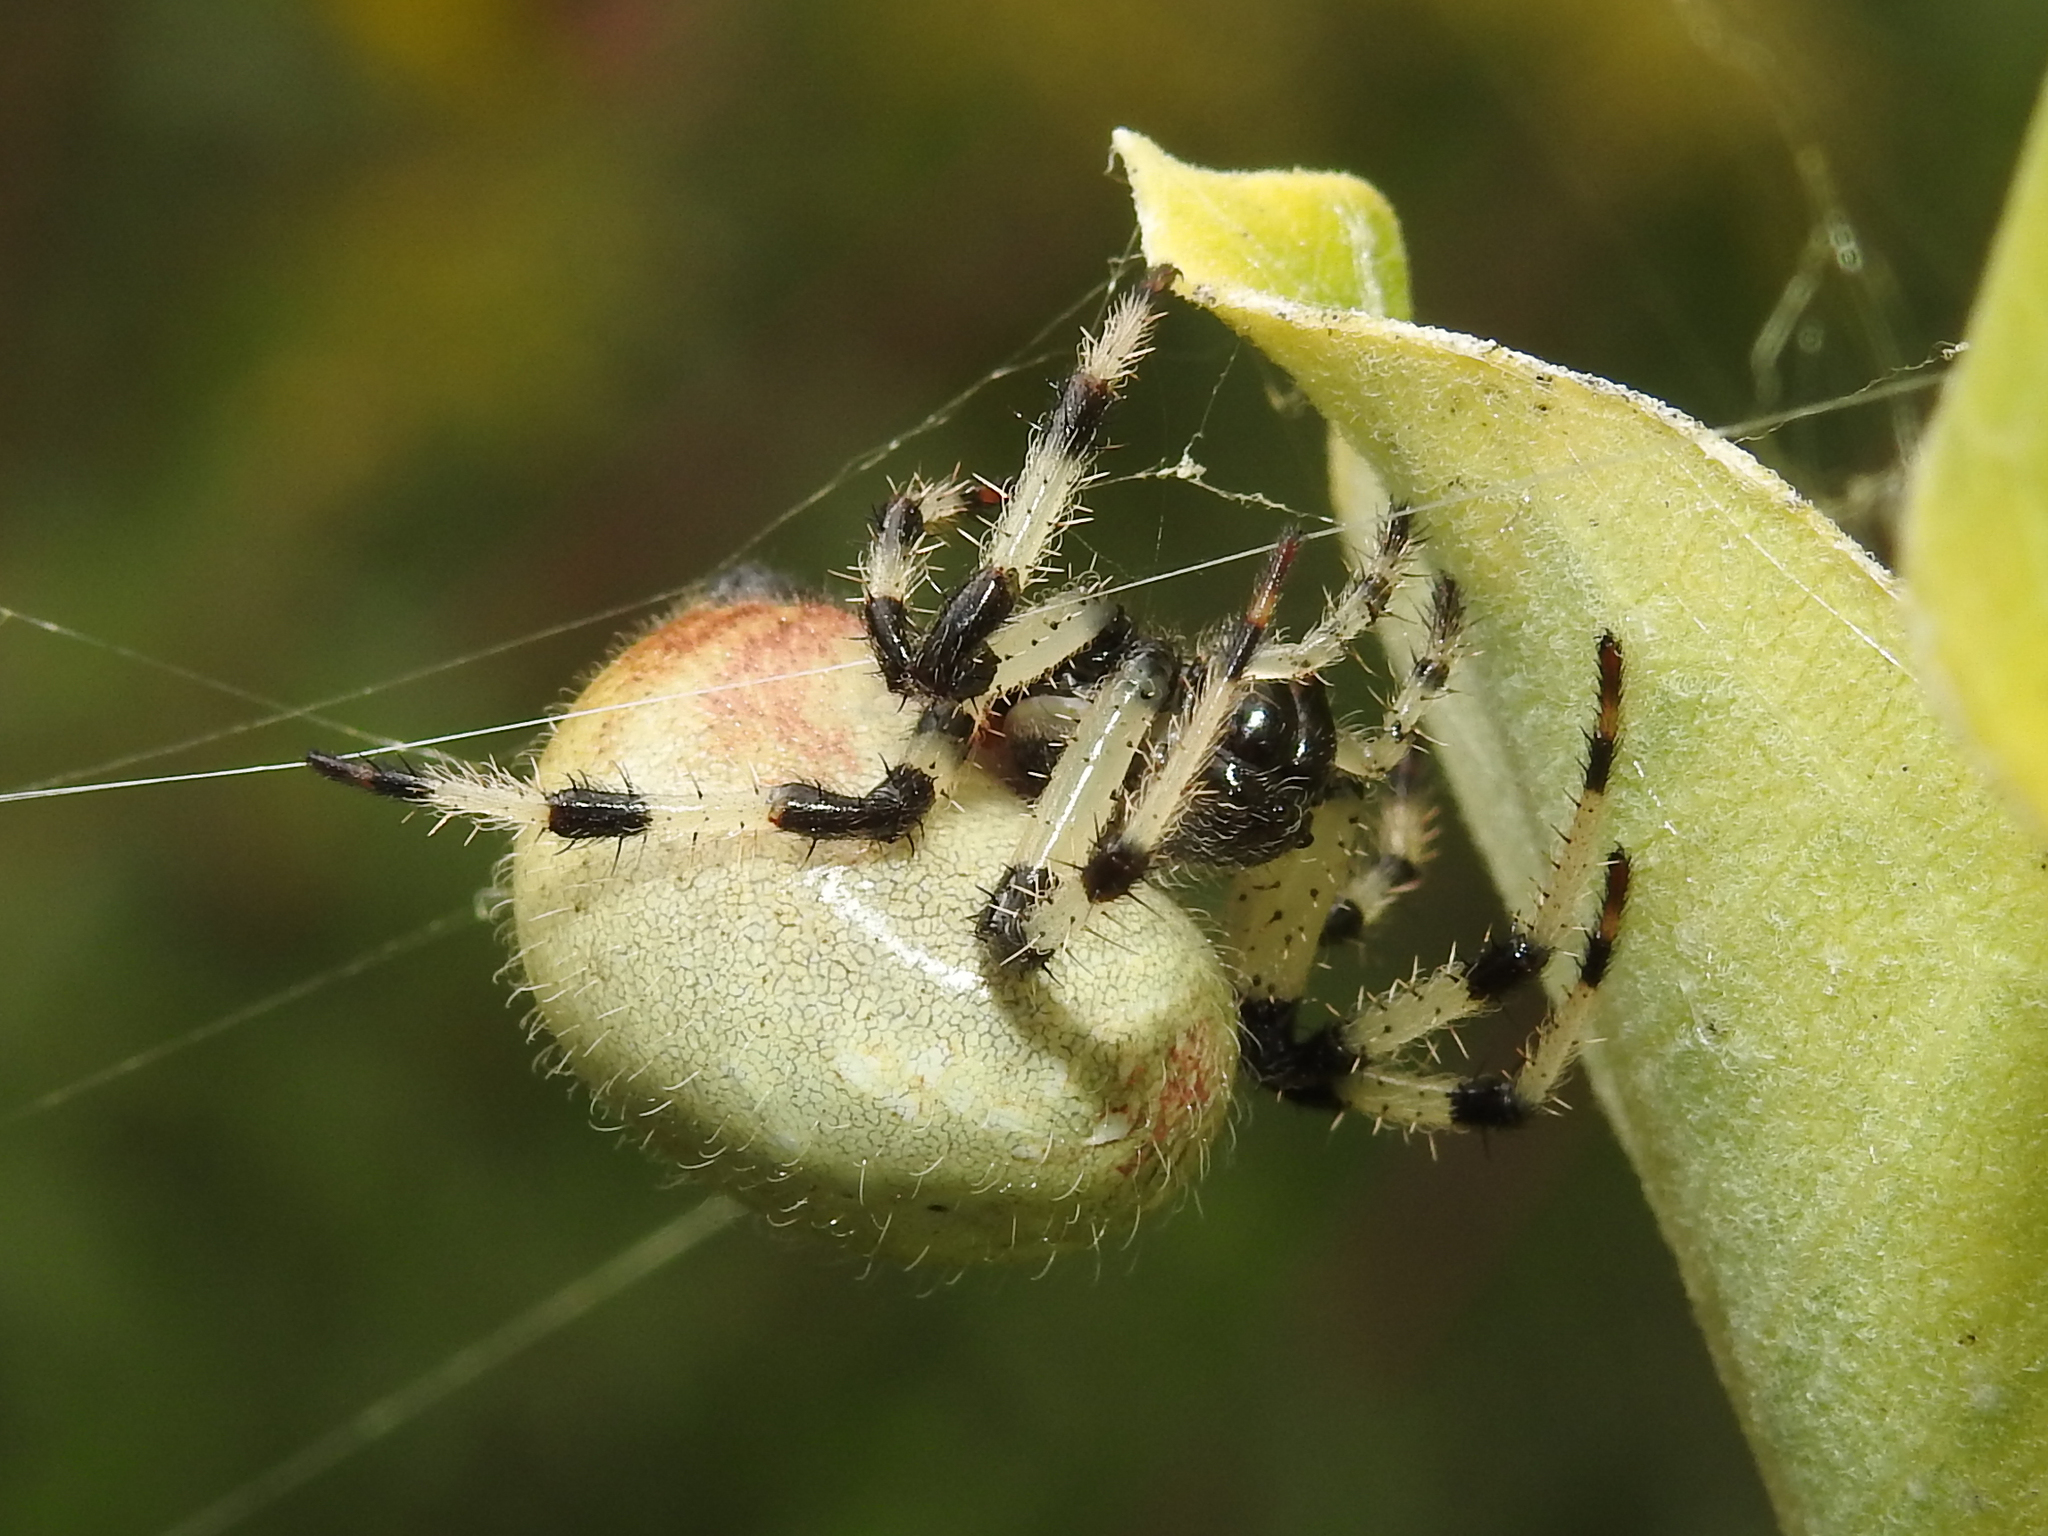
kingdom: Animalia
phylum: Arthropoda
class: Arachnida
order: Araneae
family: Araneidae
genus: Araneus
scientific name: Araneus trifolium
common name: Shamrock orbweaver
